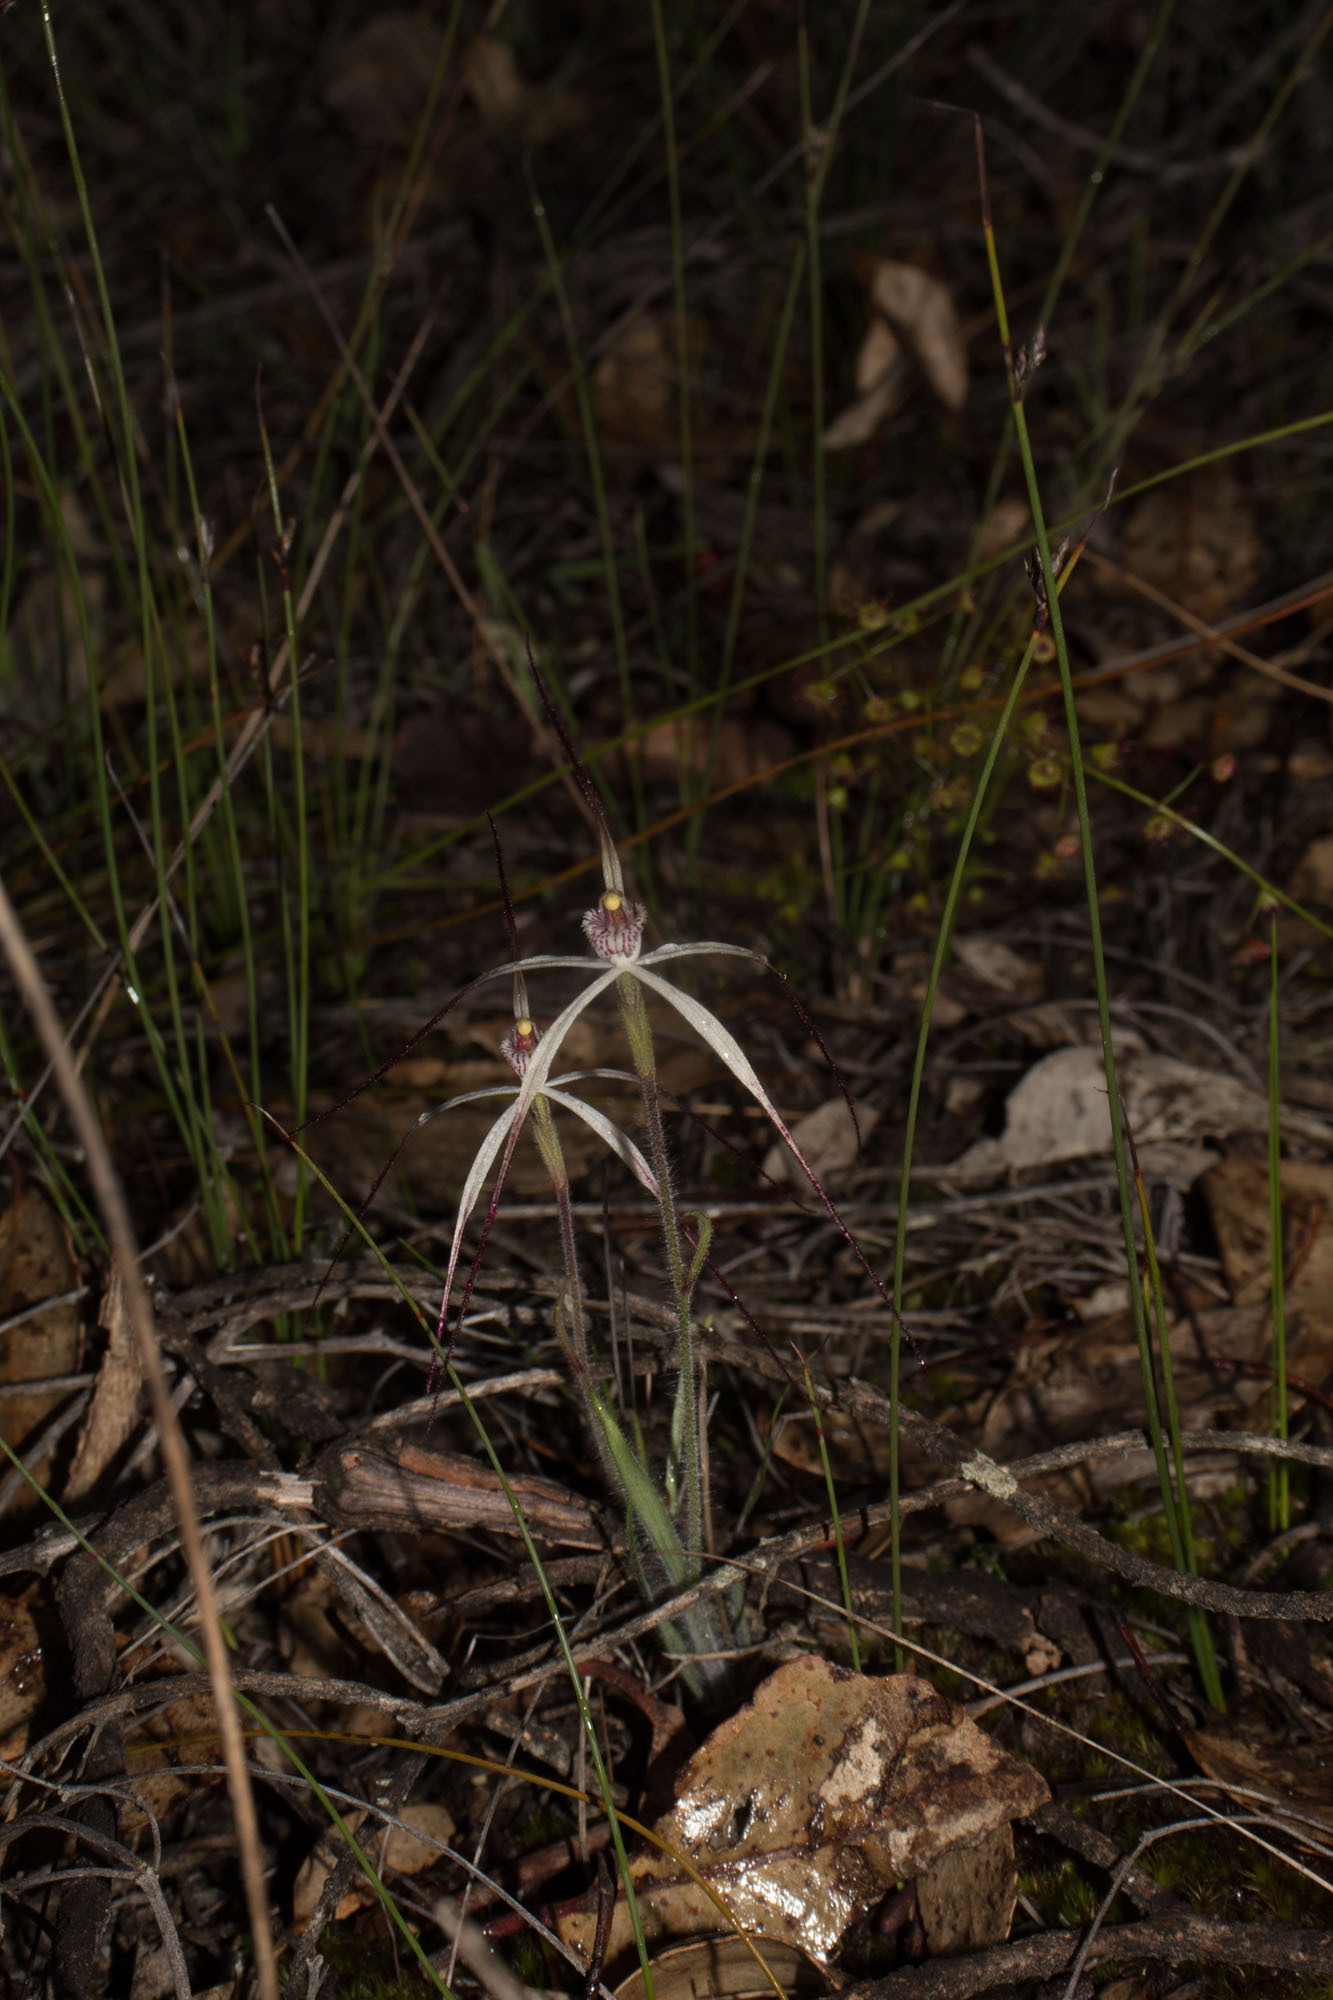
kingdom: Plantae
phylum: Tracheophyta
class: Liliopsida
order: Asparagales
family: Orchidaceae
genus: Caladenia
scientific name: Caladenia hiemalis
